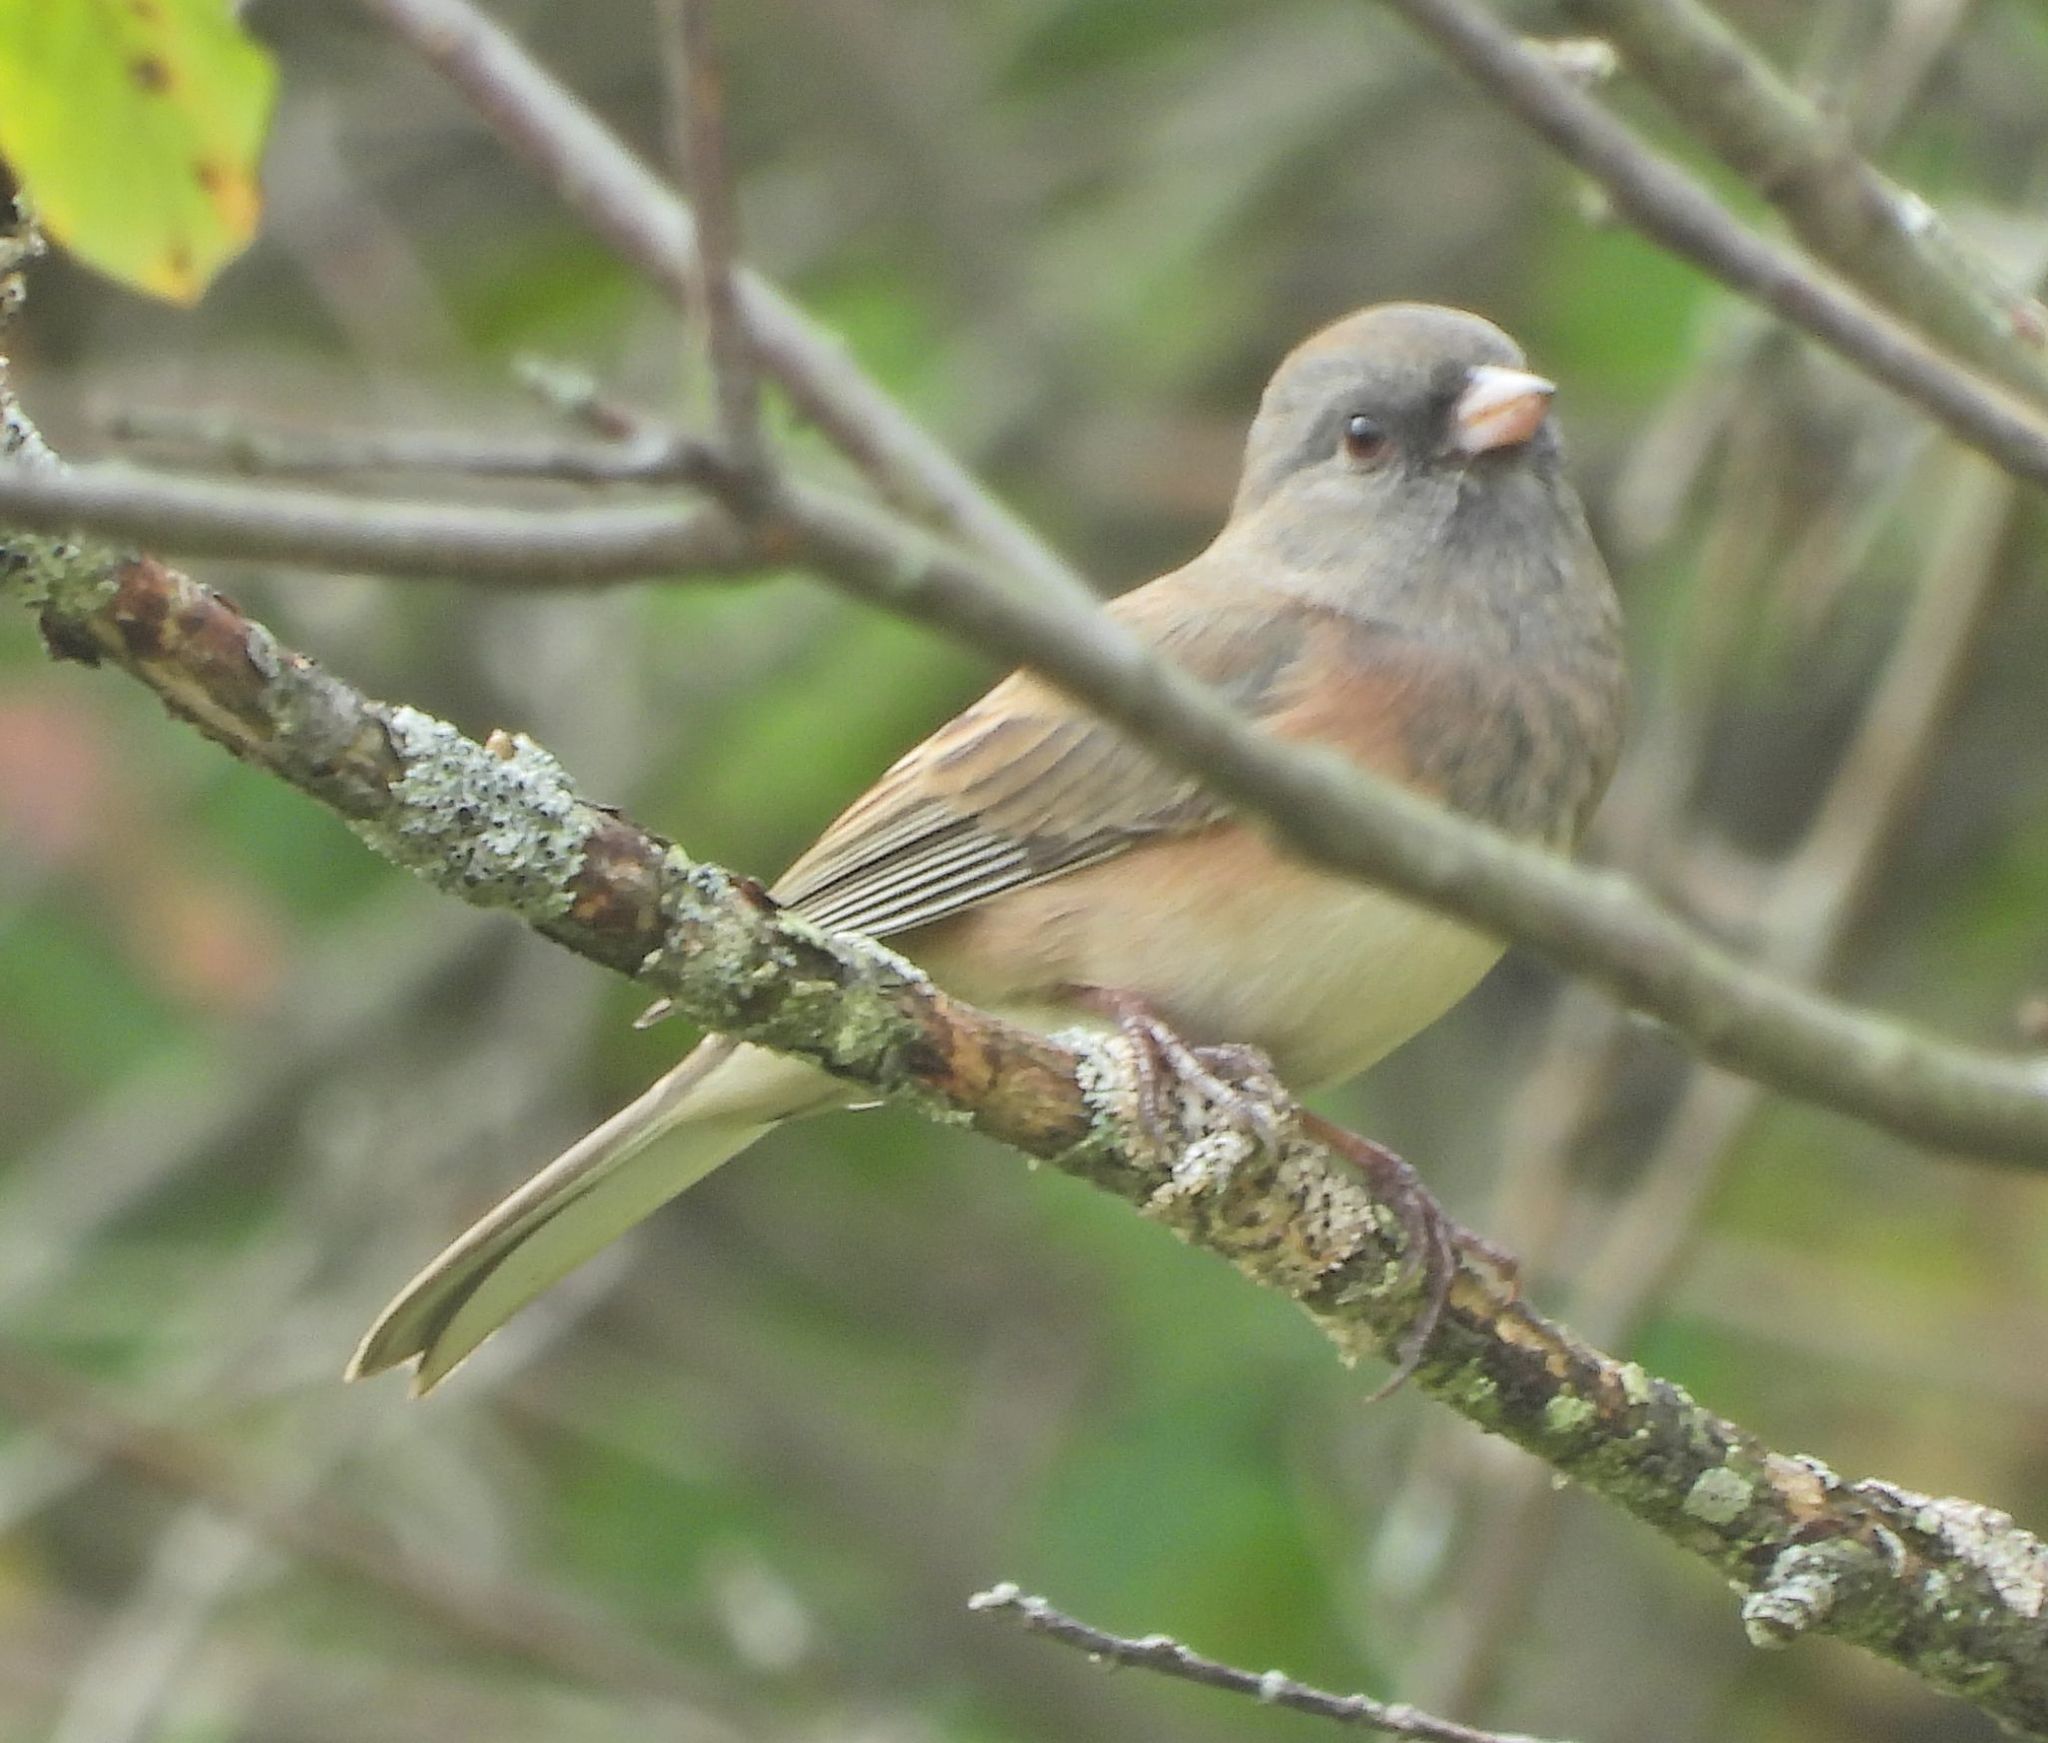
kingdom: Animalia
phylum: Chordata
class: Aves
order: Passeriformes
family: Passerellidae
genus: Junco
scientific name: Junco hyemalis
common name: Dark-eyed junco
